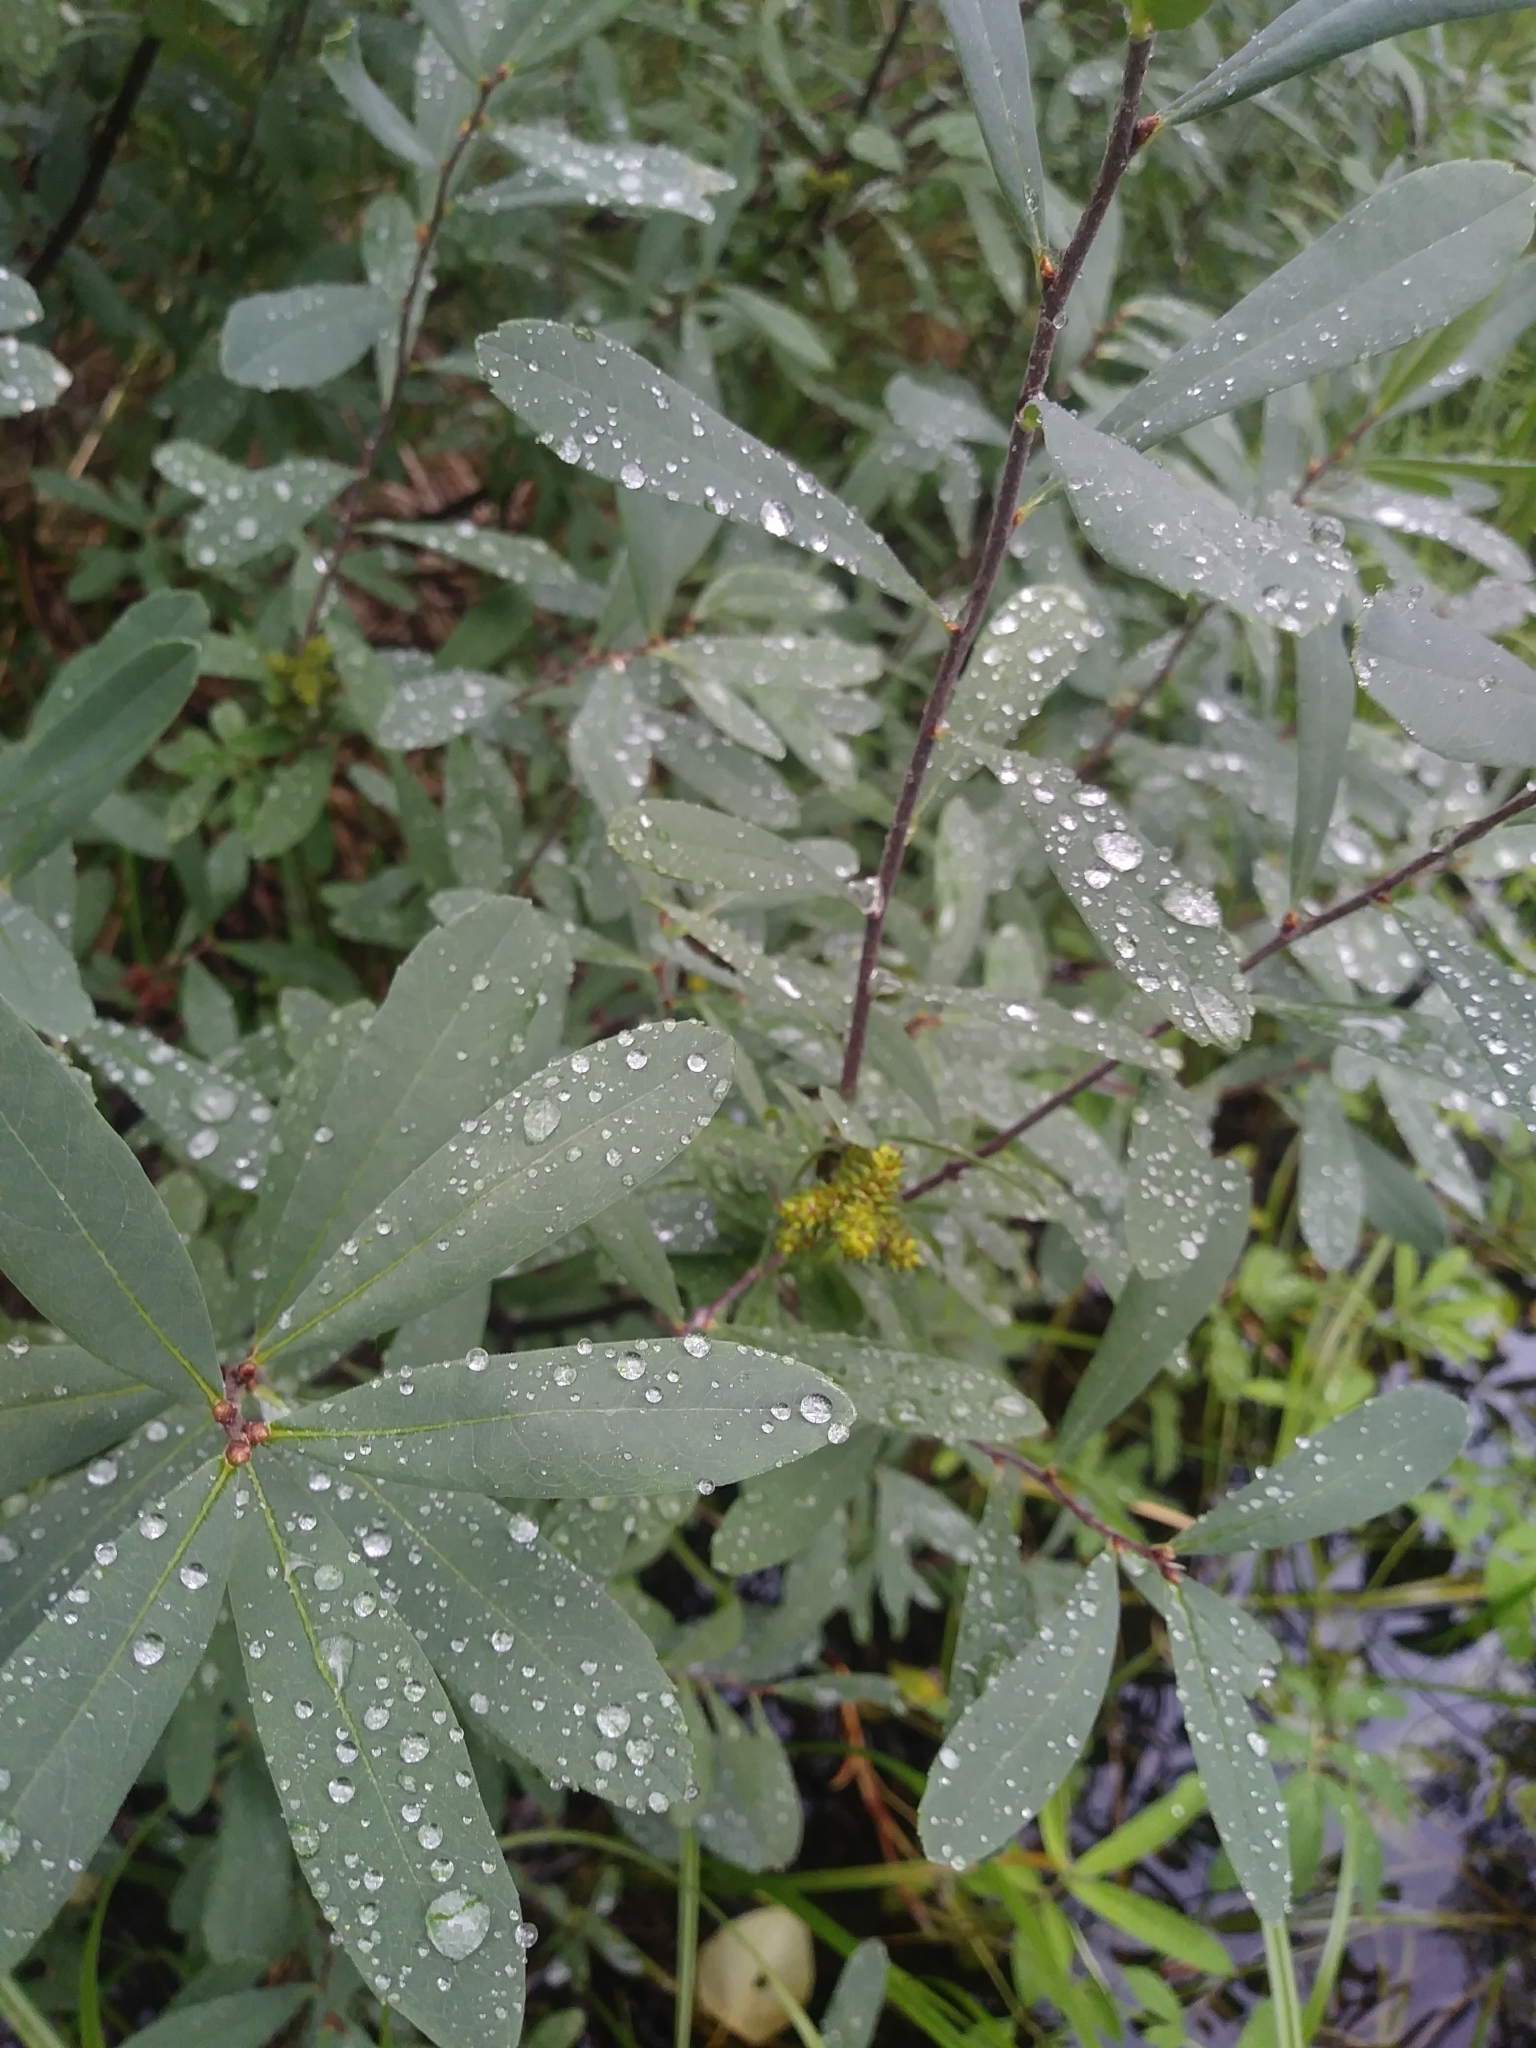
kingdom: Plantae
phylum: Tracheophyta
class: Magnoliopsida
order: Fagales
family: Myricaceae
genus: Myrica
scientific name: Myrica gale
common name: Sweet gale
